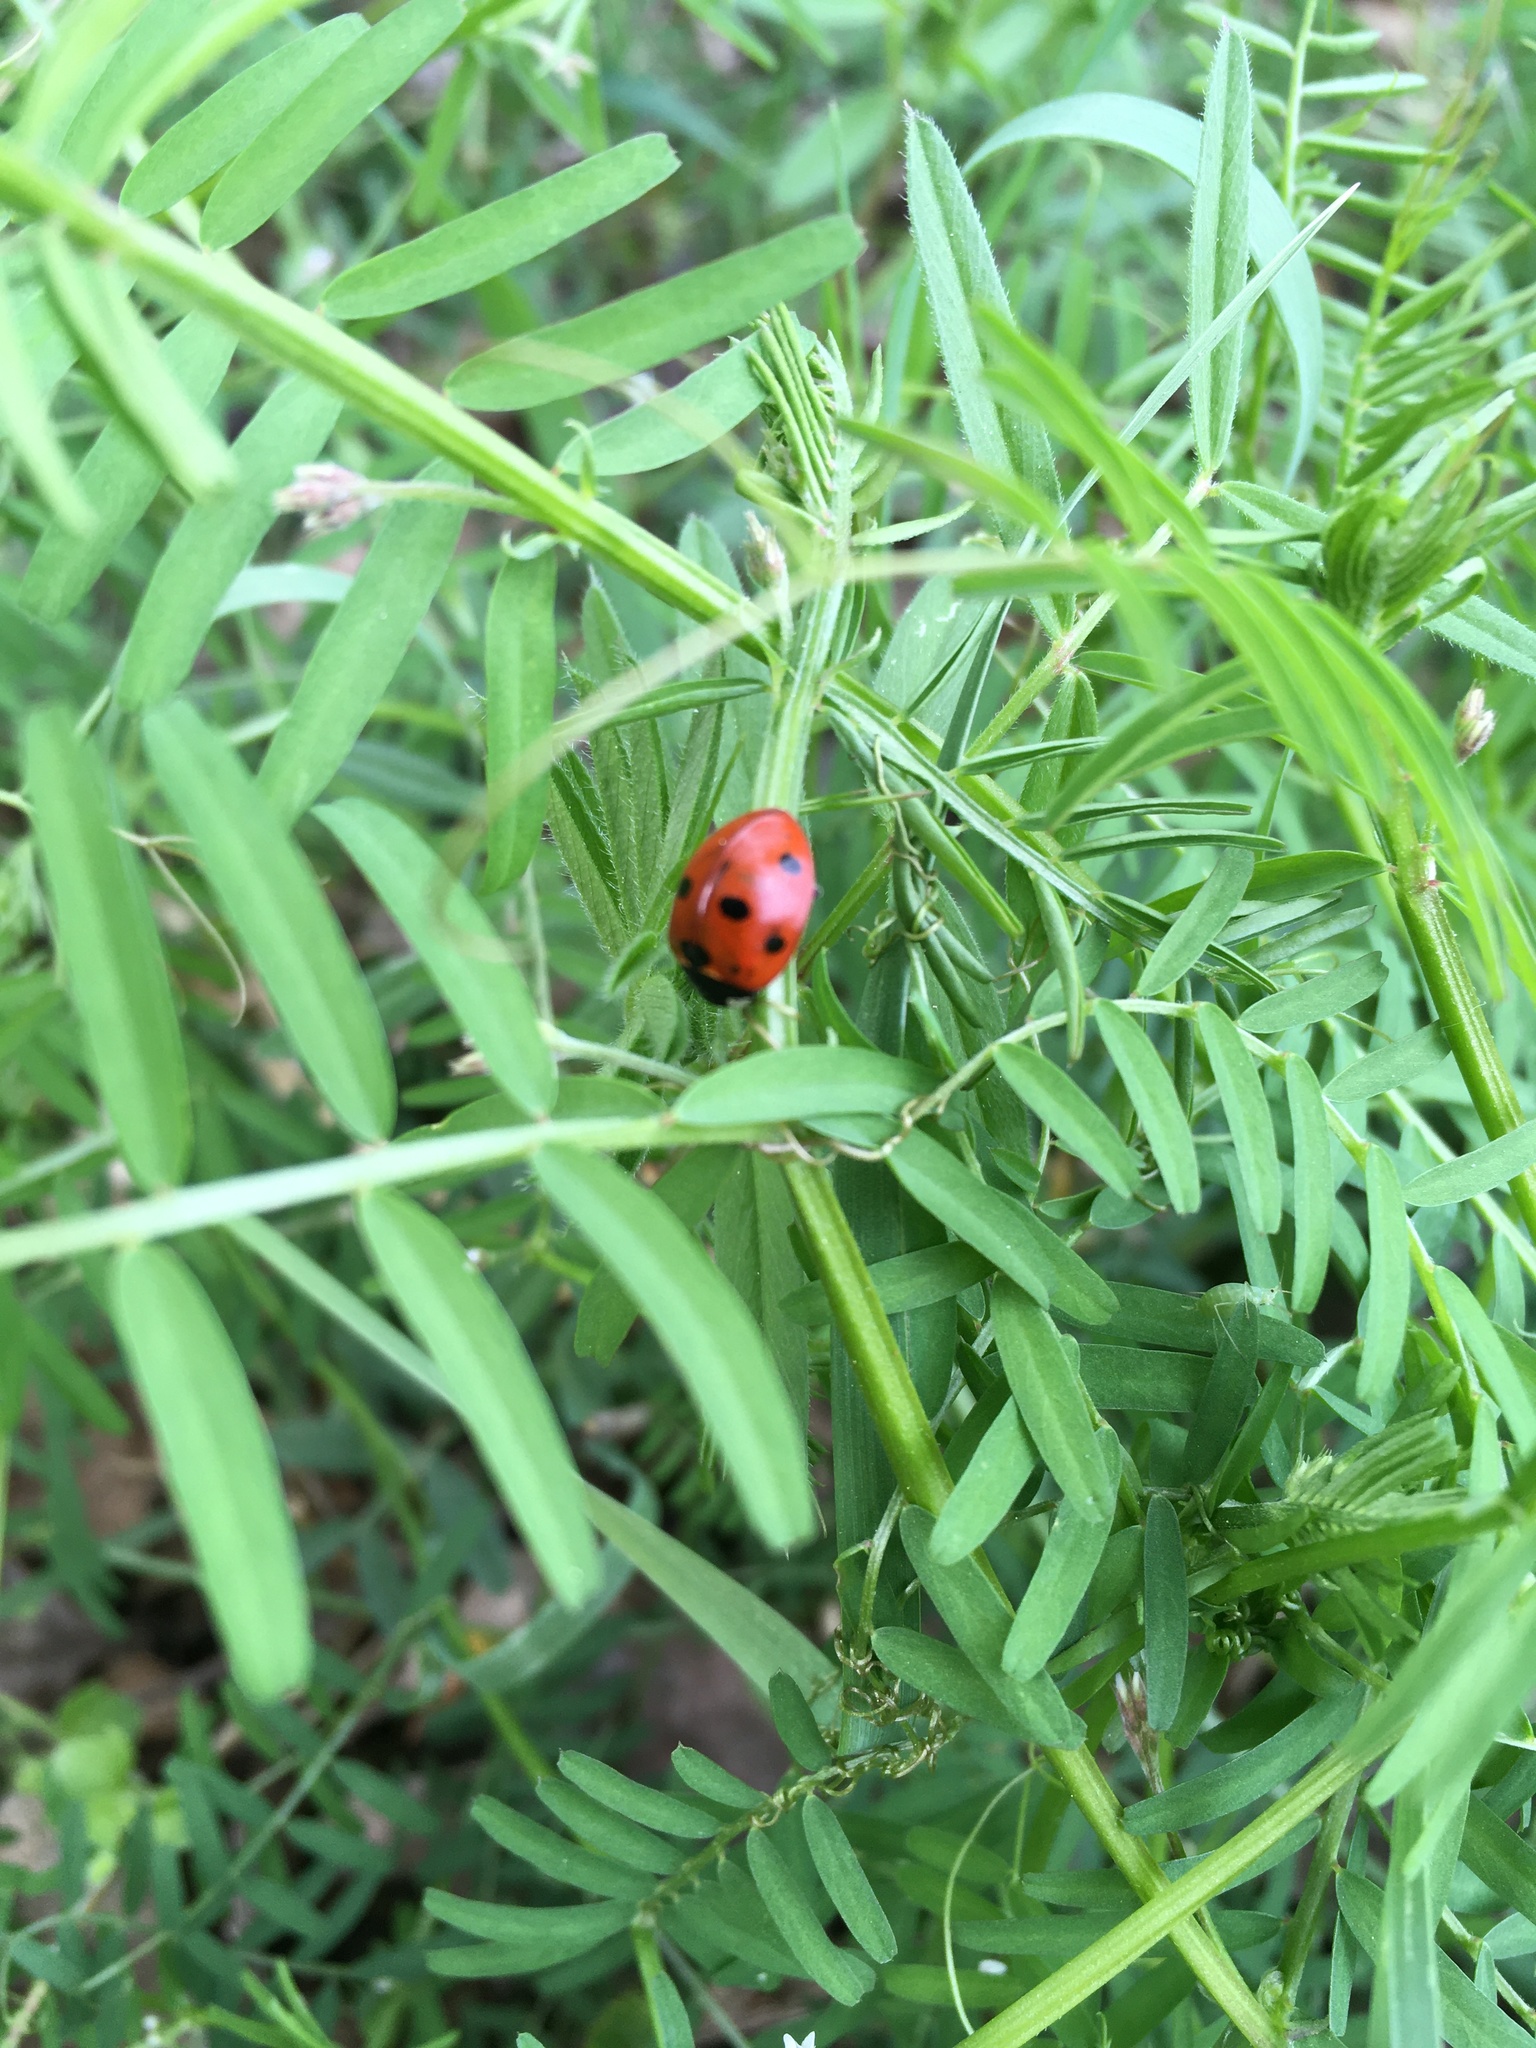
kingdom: Animalia
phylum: Arthropoda
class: Insecta
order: Coleoptera
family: Coccinellidae
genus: Coccinella
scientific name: Coccinella septempunctata
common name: Sevenspotted lady beetle
